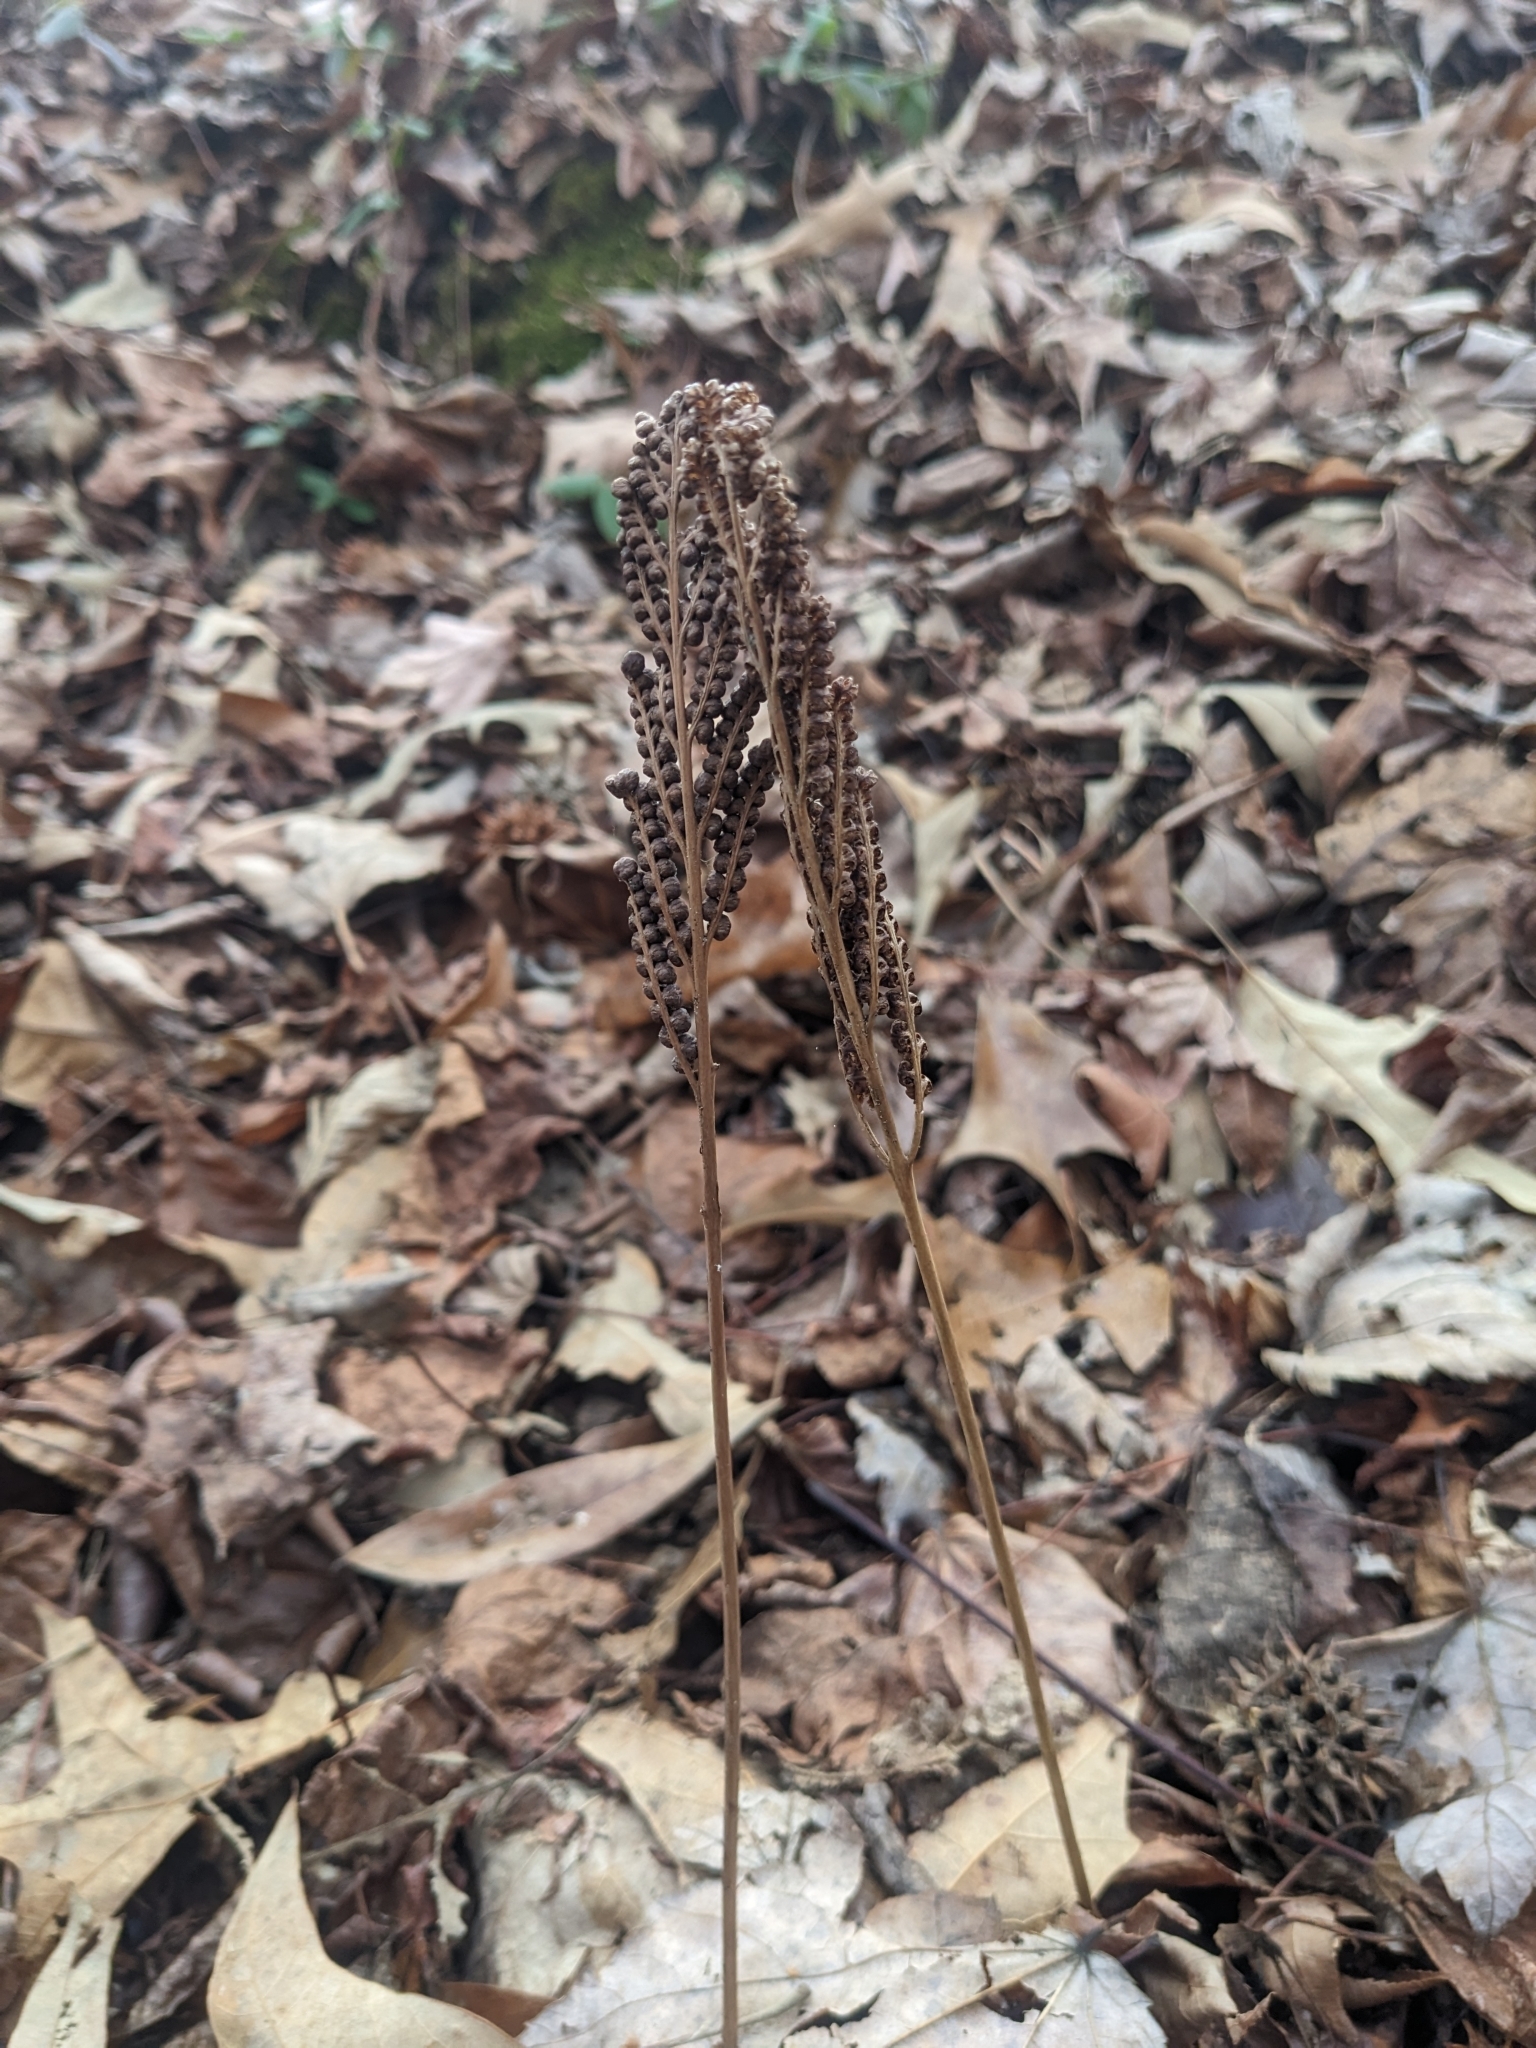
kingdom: Plantae
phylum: Tracheophyta
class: Polypodiopsida
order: Polypodiales
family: Onocleaceae
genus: Onoclea
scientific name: Onoclea sensibilis
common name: Sensitive fern
